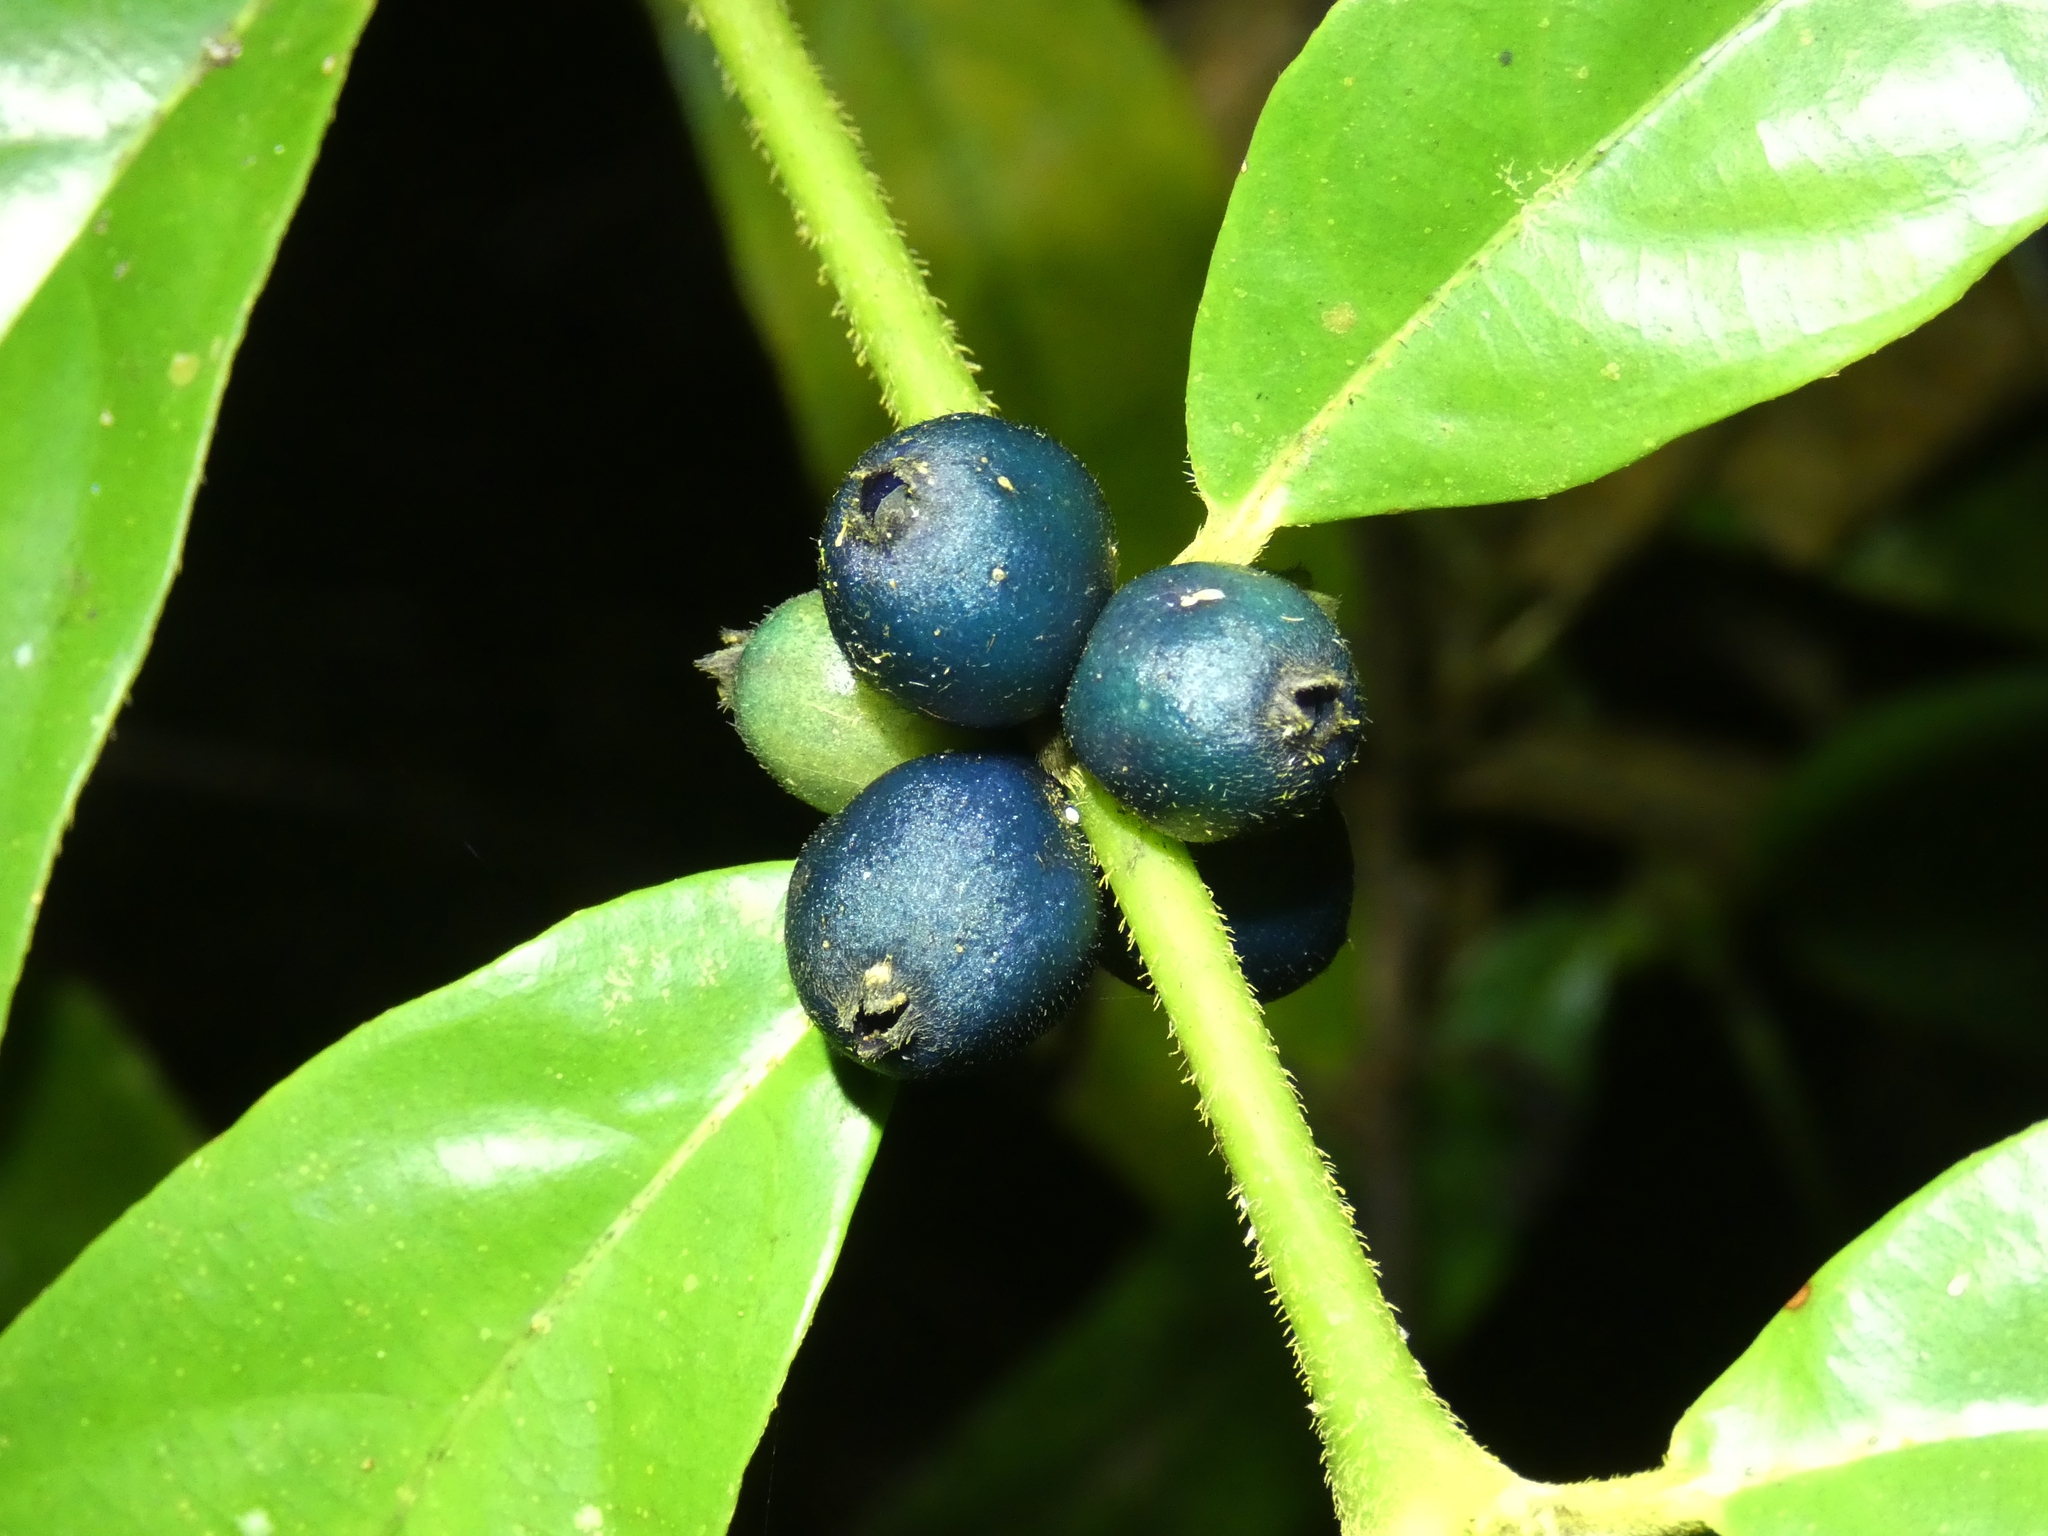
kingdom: Plantae
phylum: Tracheophyta
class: Magnoliopsida
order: Gentianales
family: Rubiaceae
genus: Lasianthus
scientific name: Lasianthus chlorocarpus
